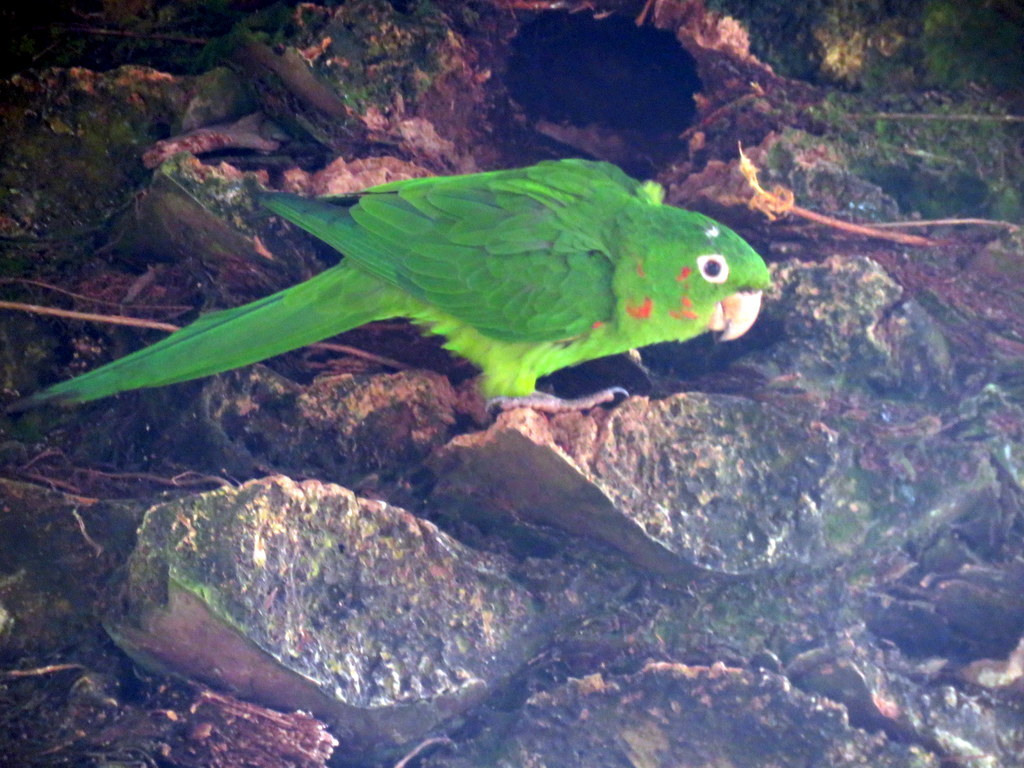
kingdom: Animalia
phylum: Chordata
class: Aves
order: Psittaciformes
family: Psittacidae
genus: Aratinga
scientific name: Aratinga leucophthalma
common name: White-eyed parakeet
